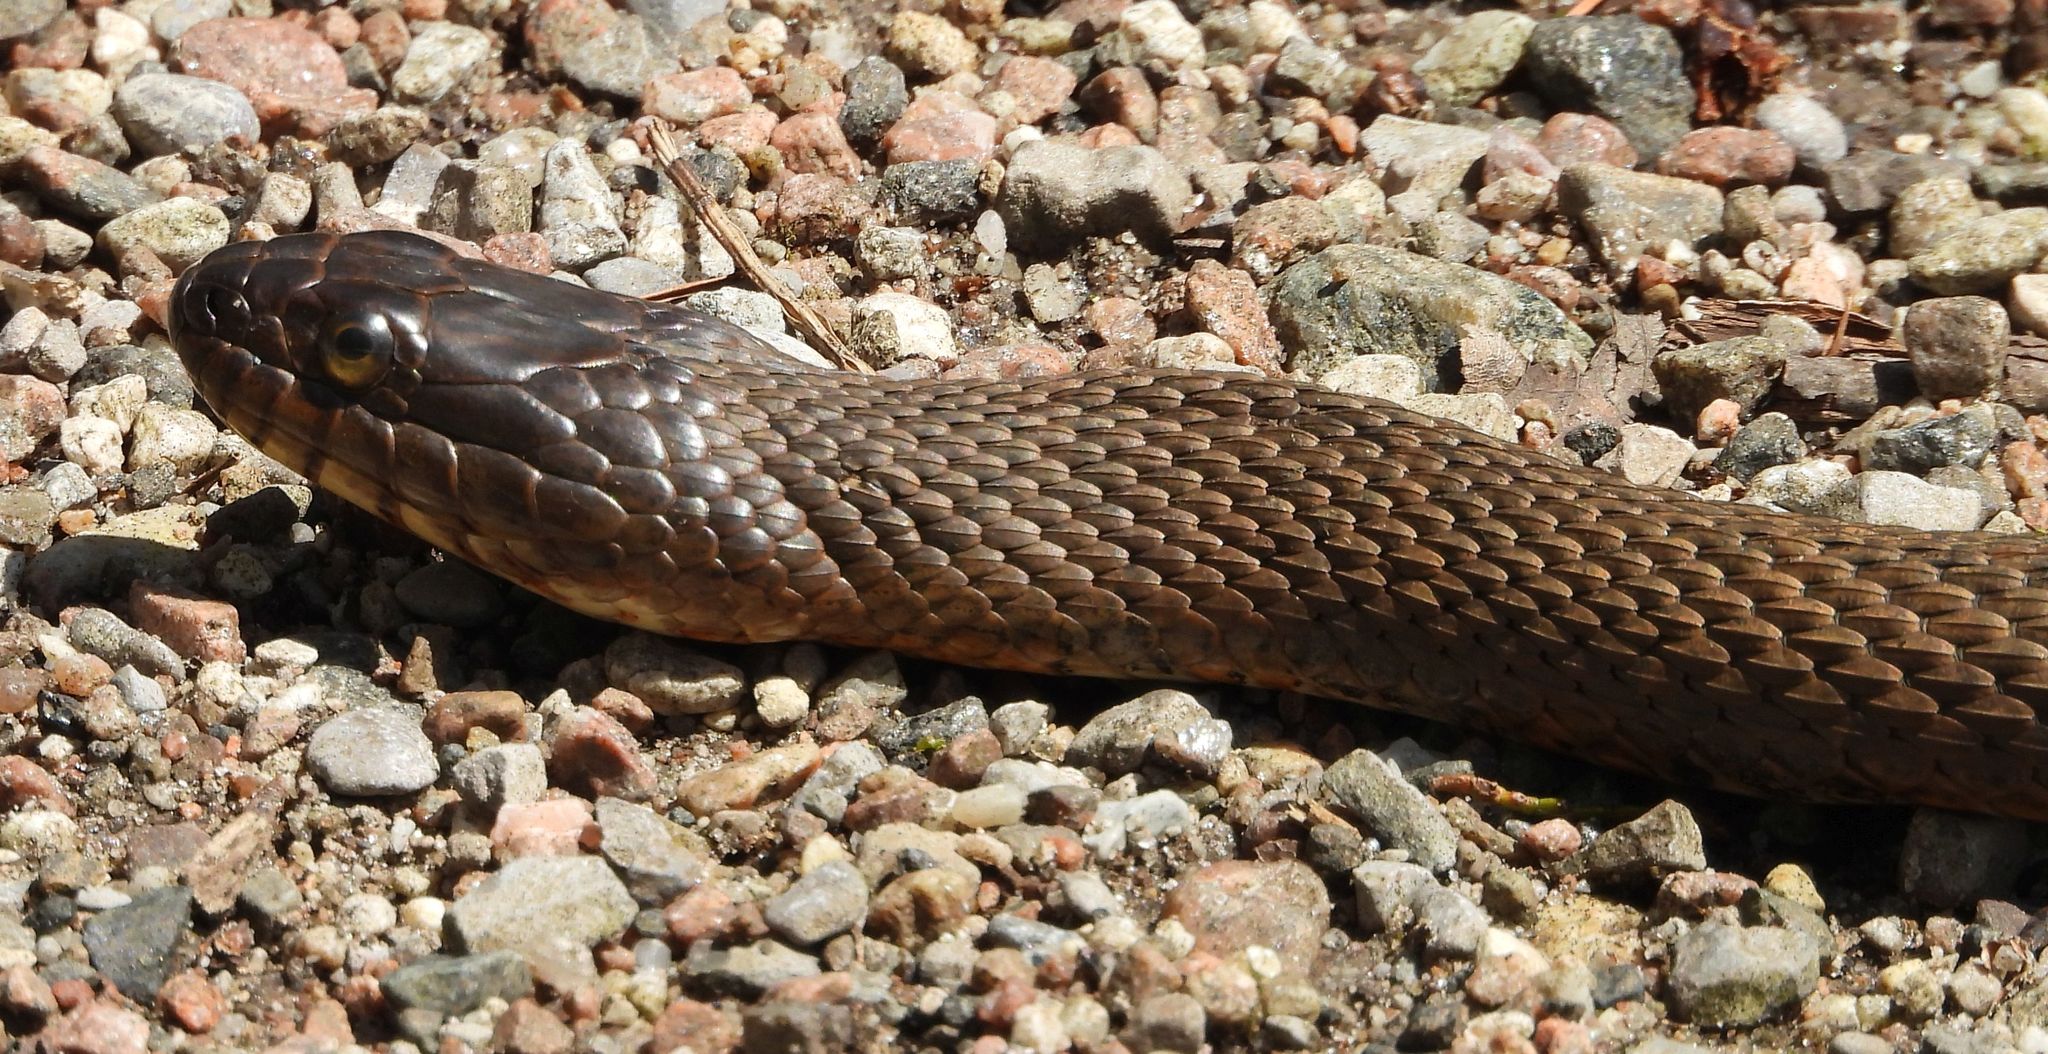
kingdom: Animalia
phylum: Chordata
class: Squamata
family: Colubridae
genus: Nerodia
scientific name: Nerodia sipedon
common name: Northern water snake
